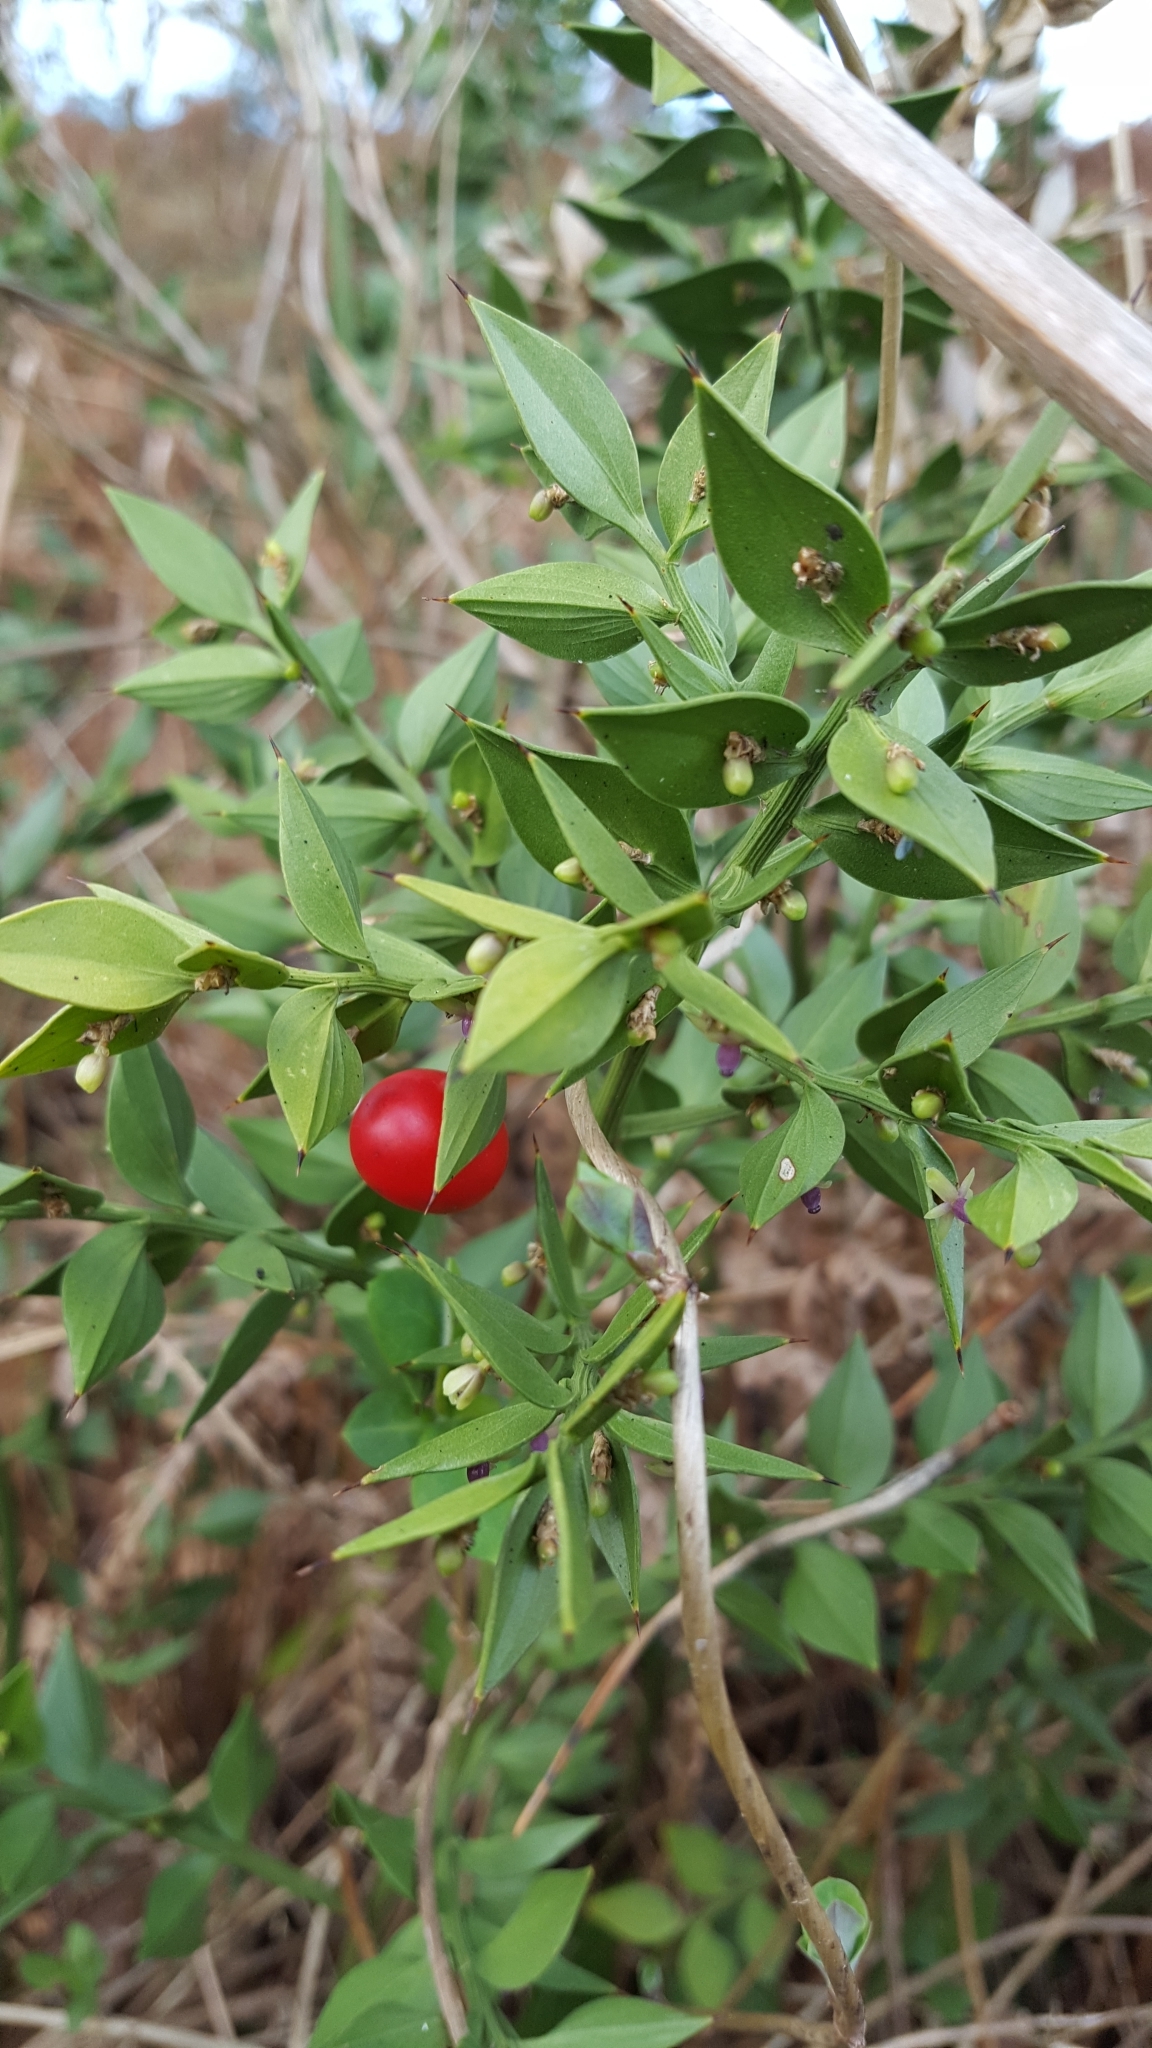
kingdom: Plantae
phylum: Tracheophyta
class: Liliopsida
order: Asparagales
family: Asparagaceae
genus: Ruscus
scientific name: Ruscus aculeatus
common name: Butcher's-broom
